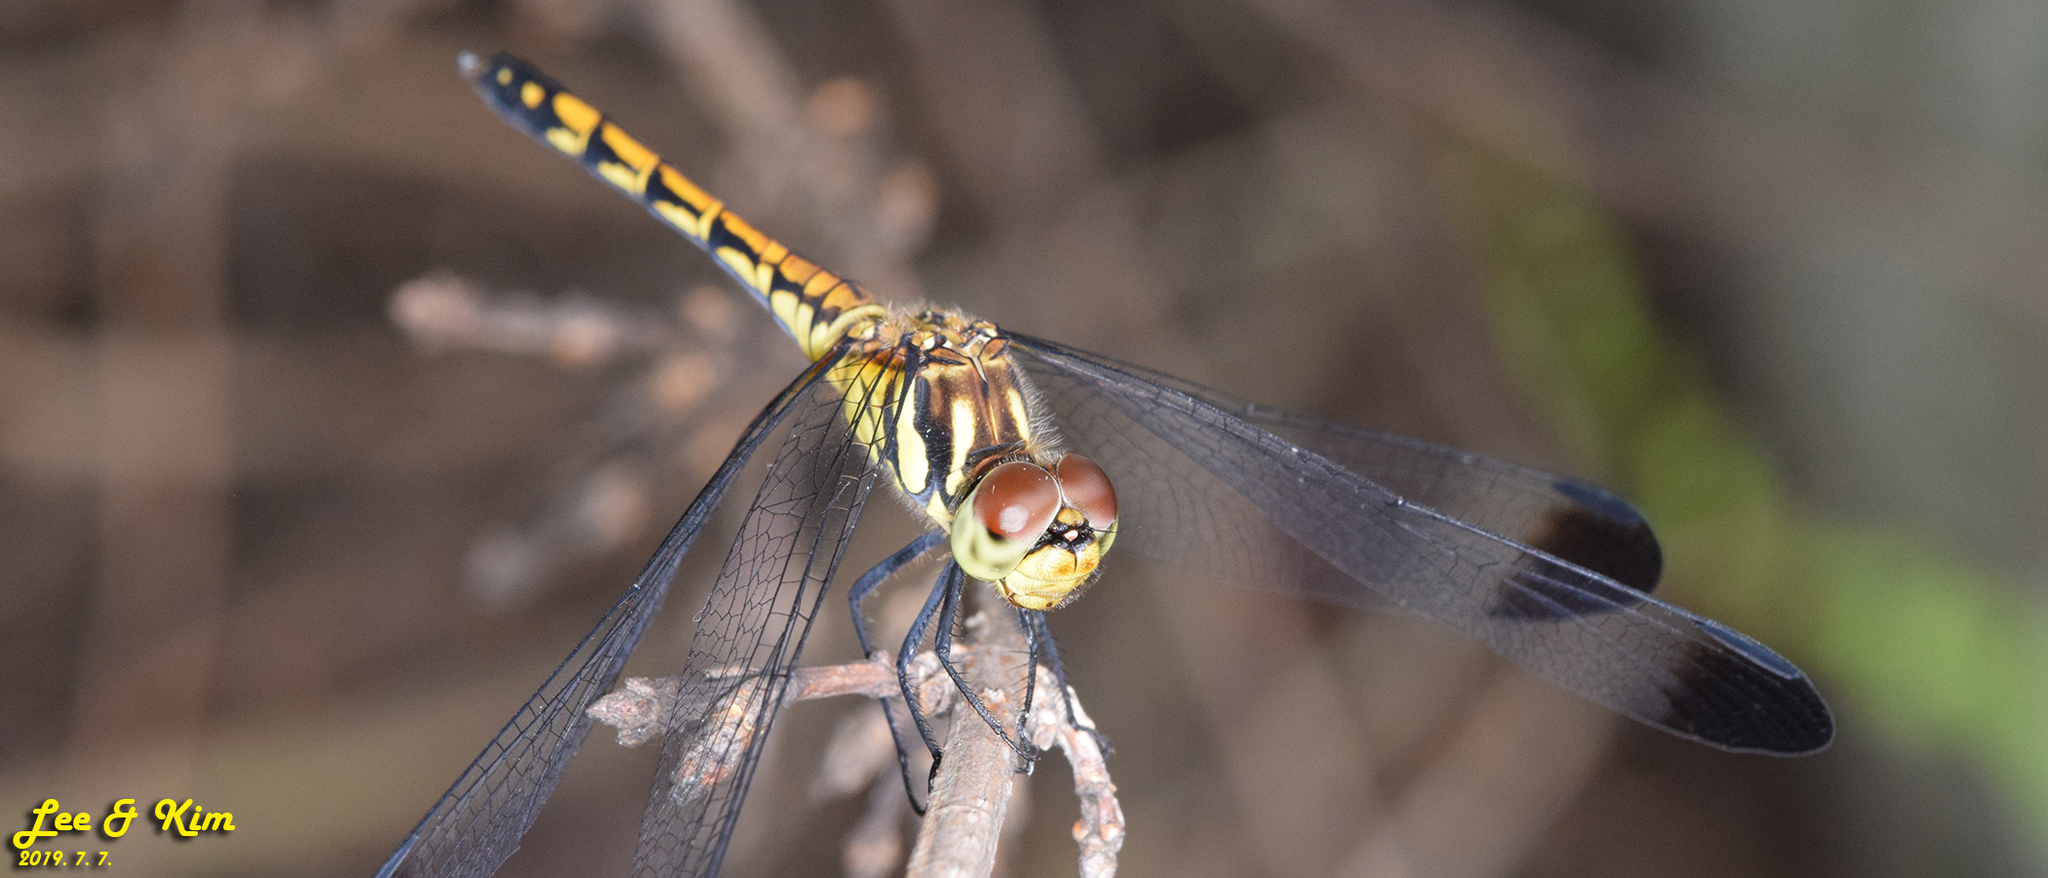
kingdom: Animalia
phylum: Arthropoda
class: Insecta
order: Odonata
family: Libellulidae
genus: Sympetrum
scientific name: Sympetrum infuscatum
